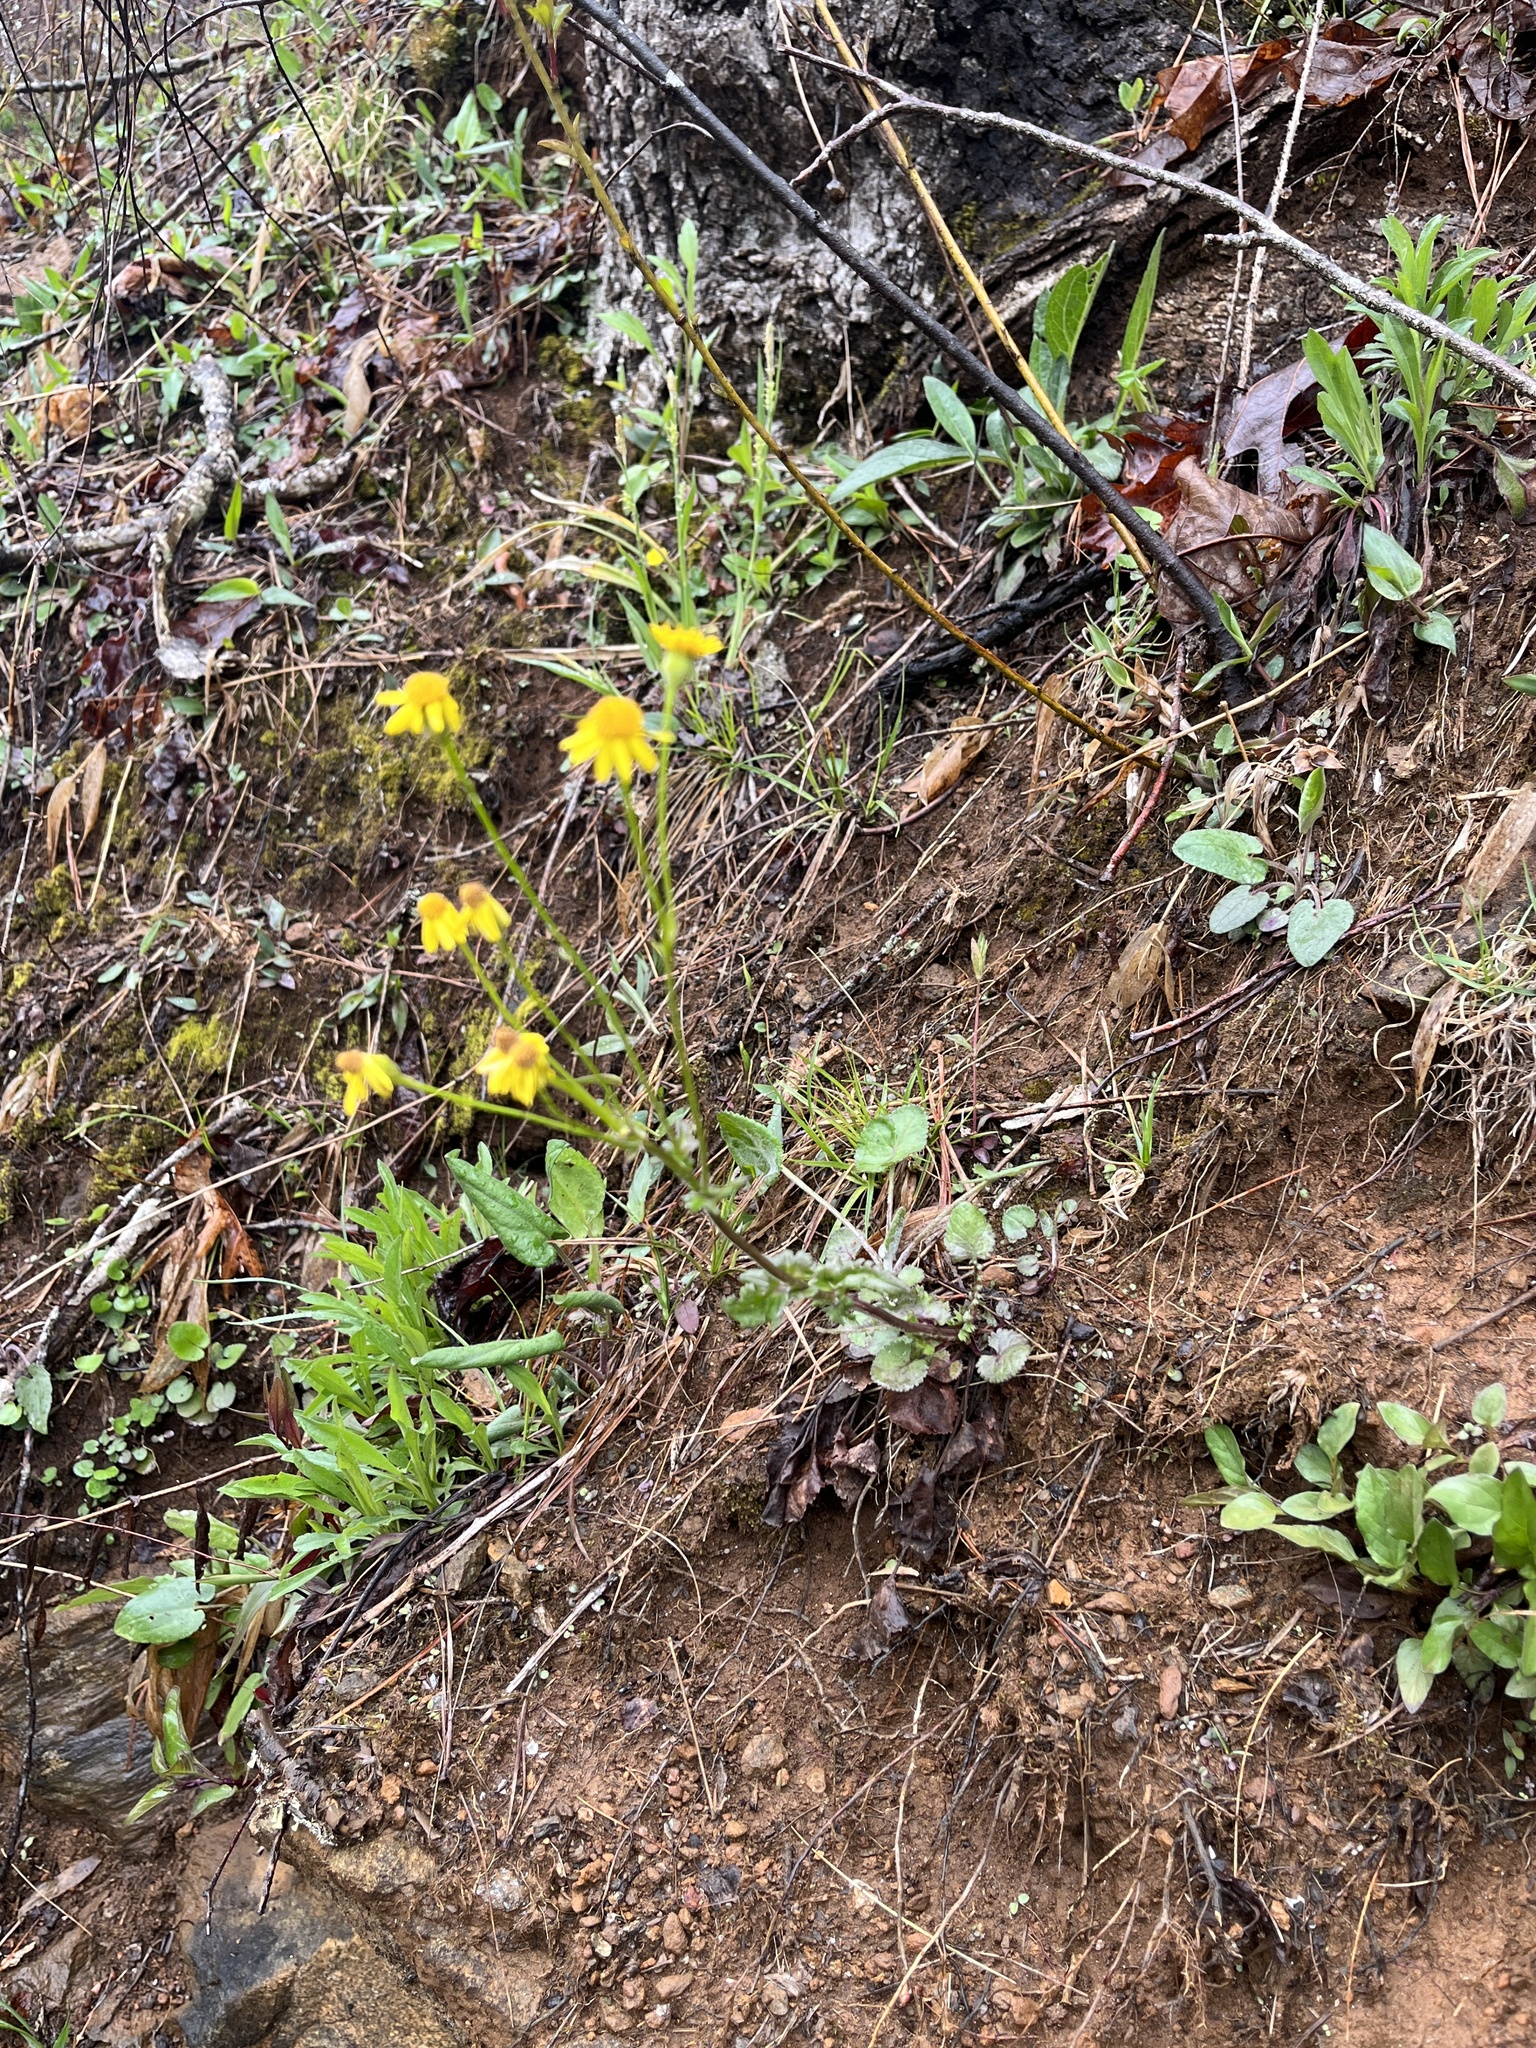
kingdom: Plantae
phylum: Tracheophyta
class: Magnoliopsida
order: Asterales
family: Asteraceae
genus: Packera
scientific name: Packera serpenticola
